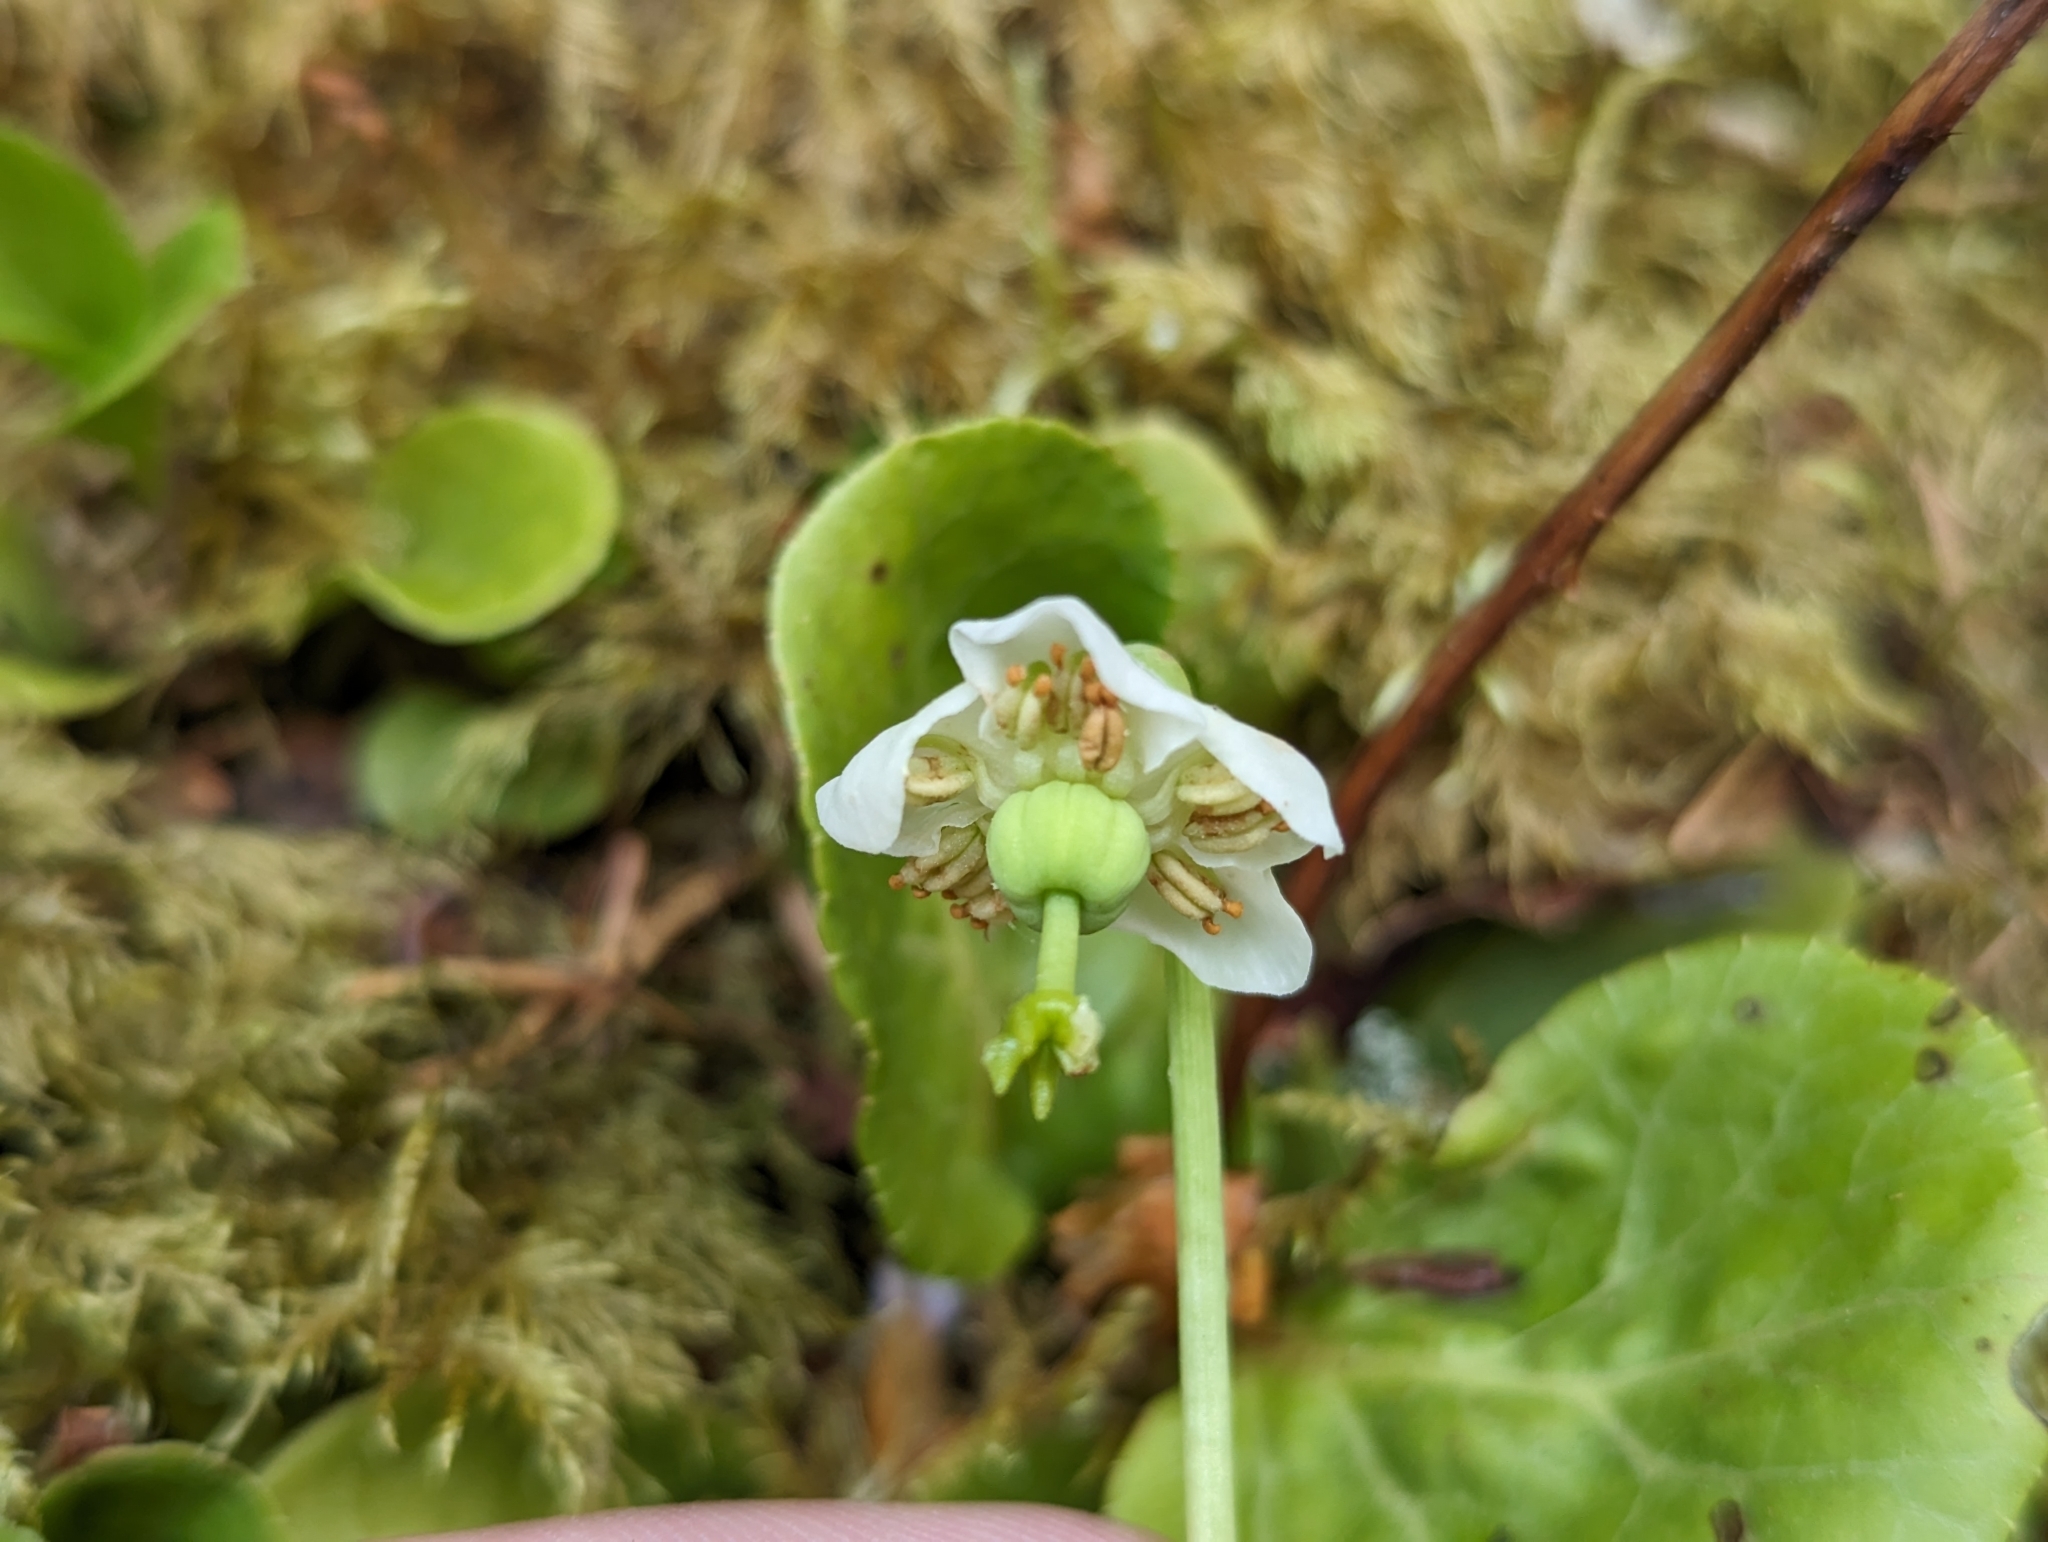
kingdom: Plantae
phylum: Tracheophyta
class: Magnoliopsida
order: Ericales
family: Ericaceae
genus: Moneses
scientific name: Moneses uniflora
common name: One-flowered wintergreen
